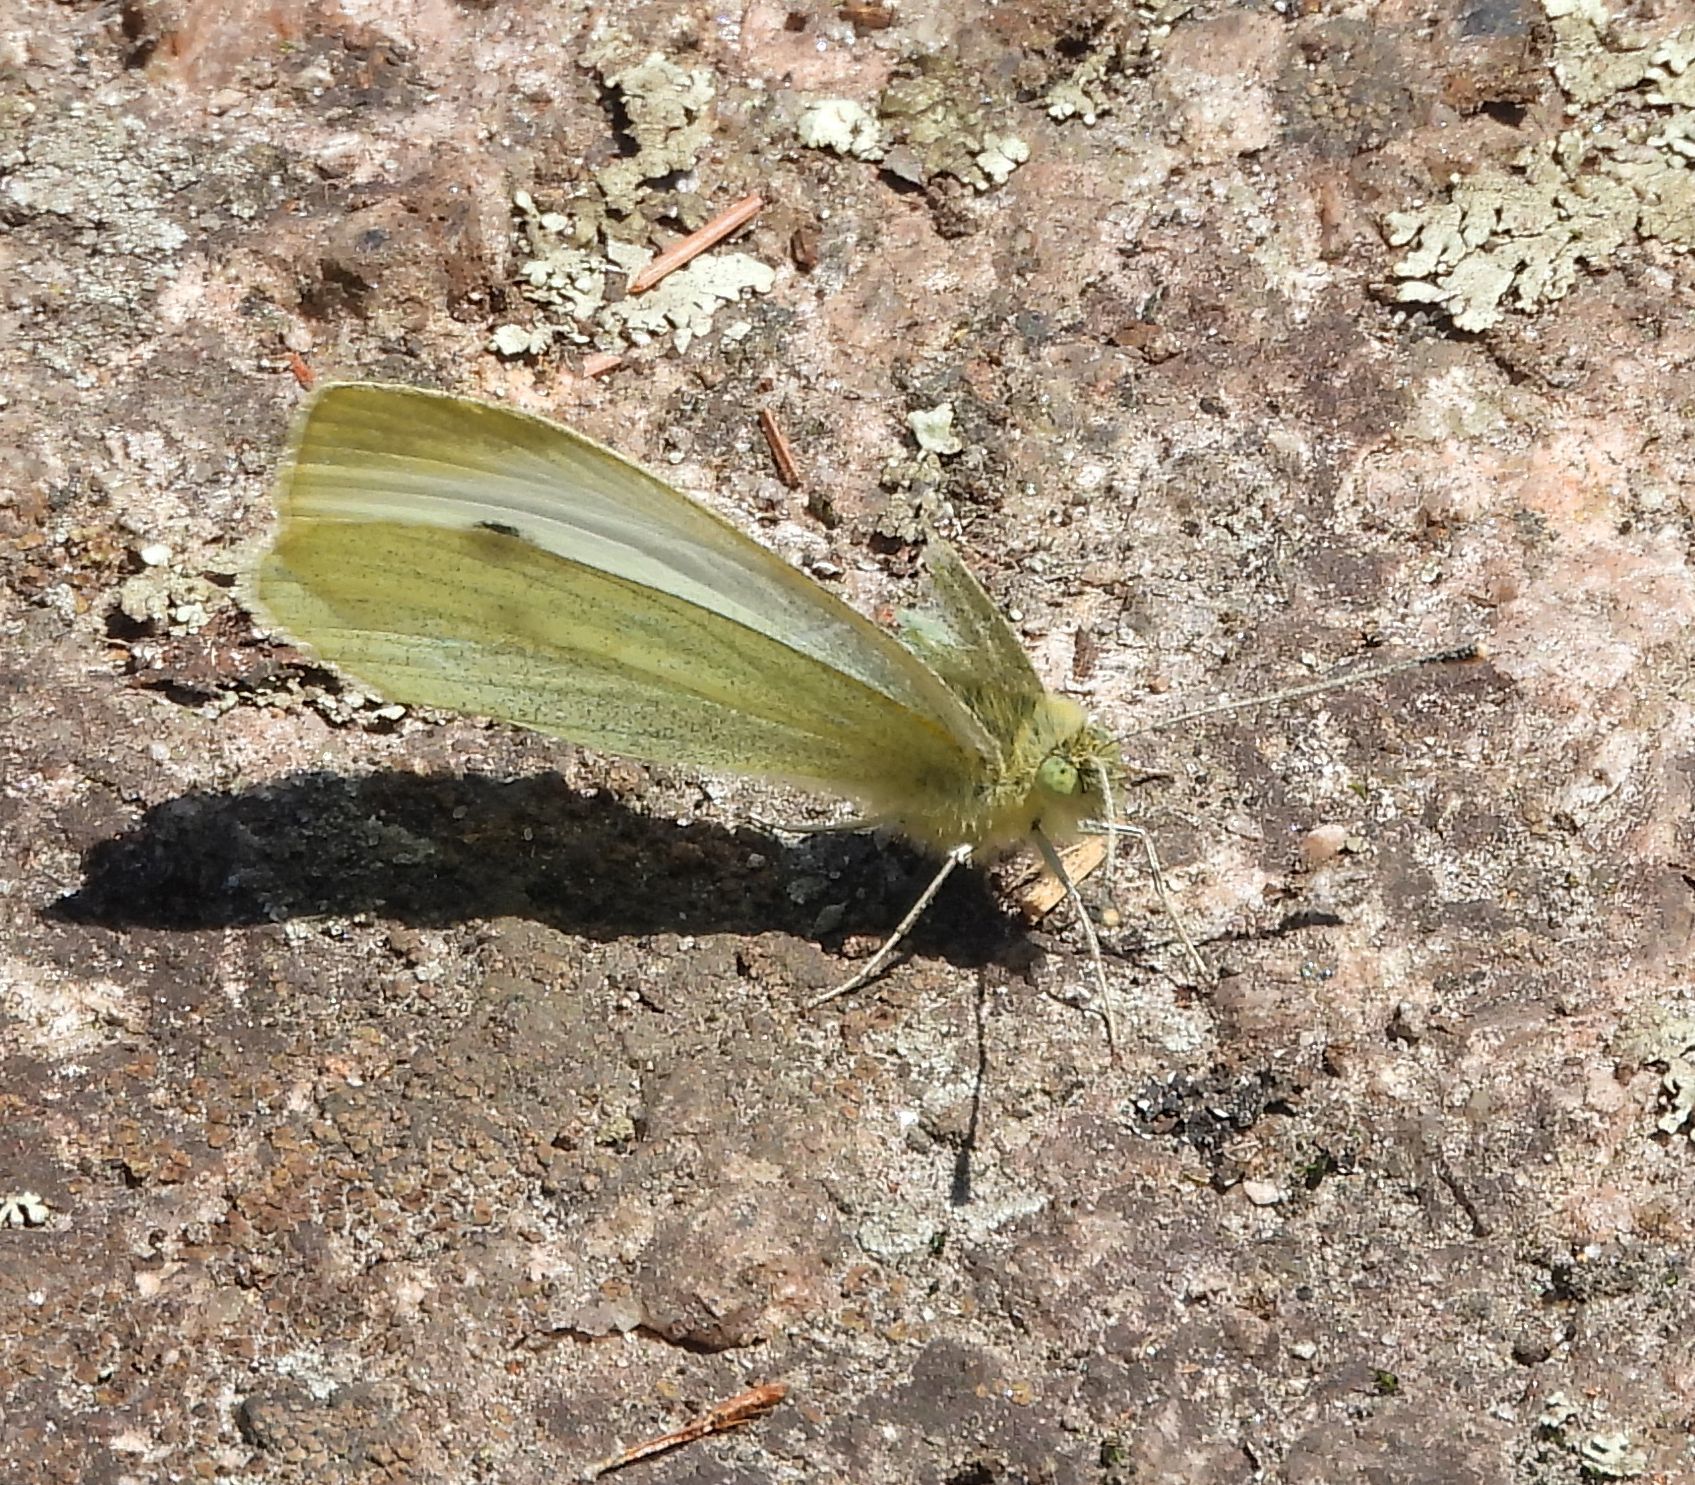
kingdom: Animalia
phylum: Arthropoda
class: Insecta
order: Lepidoptera
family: Pieridae
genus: Pieris
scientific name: Pieris rapae
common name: Small white
